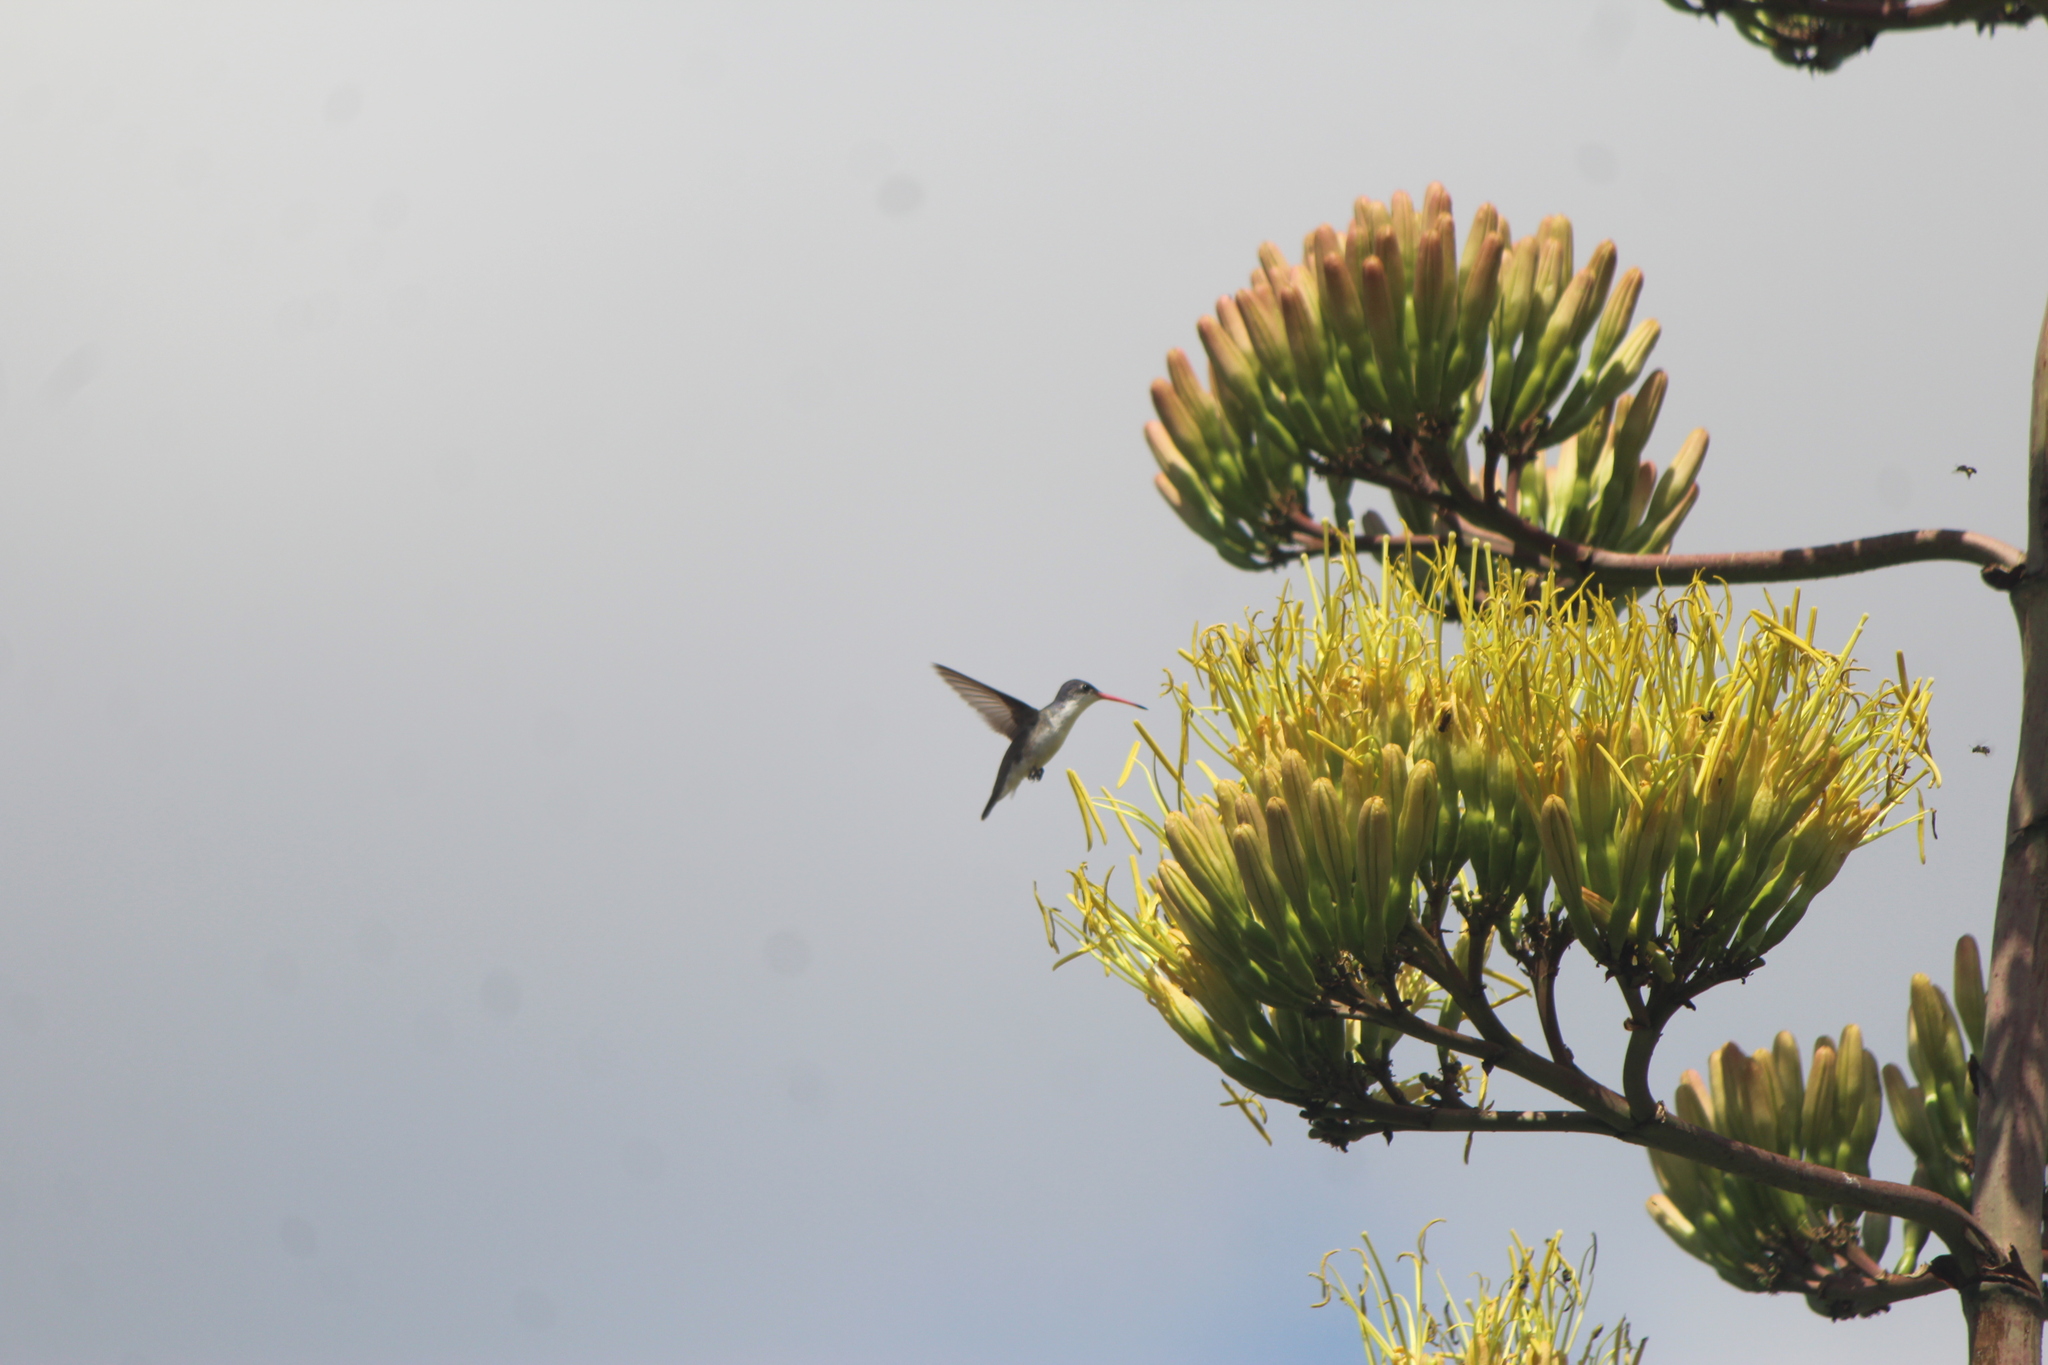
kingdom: Animalia
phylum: Chordata
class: Aves
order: Apodiformes
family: Trochilidae
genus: Leucolia
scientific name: Leucolia violiceps
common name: Violet-crowned hummingbird
